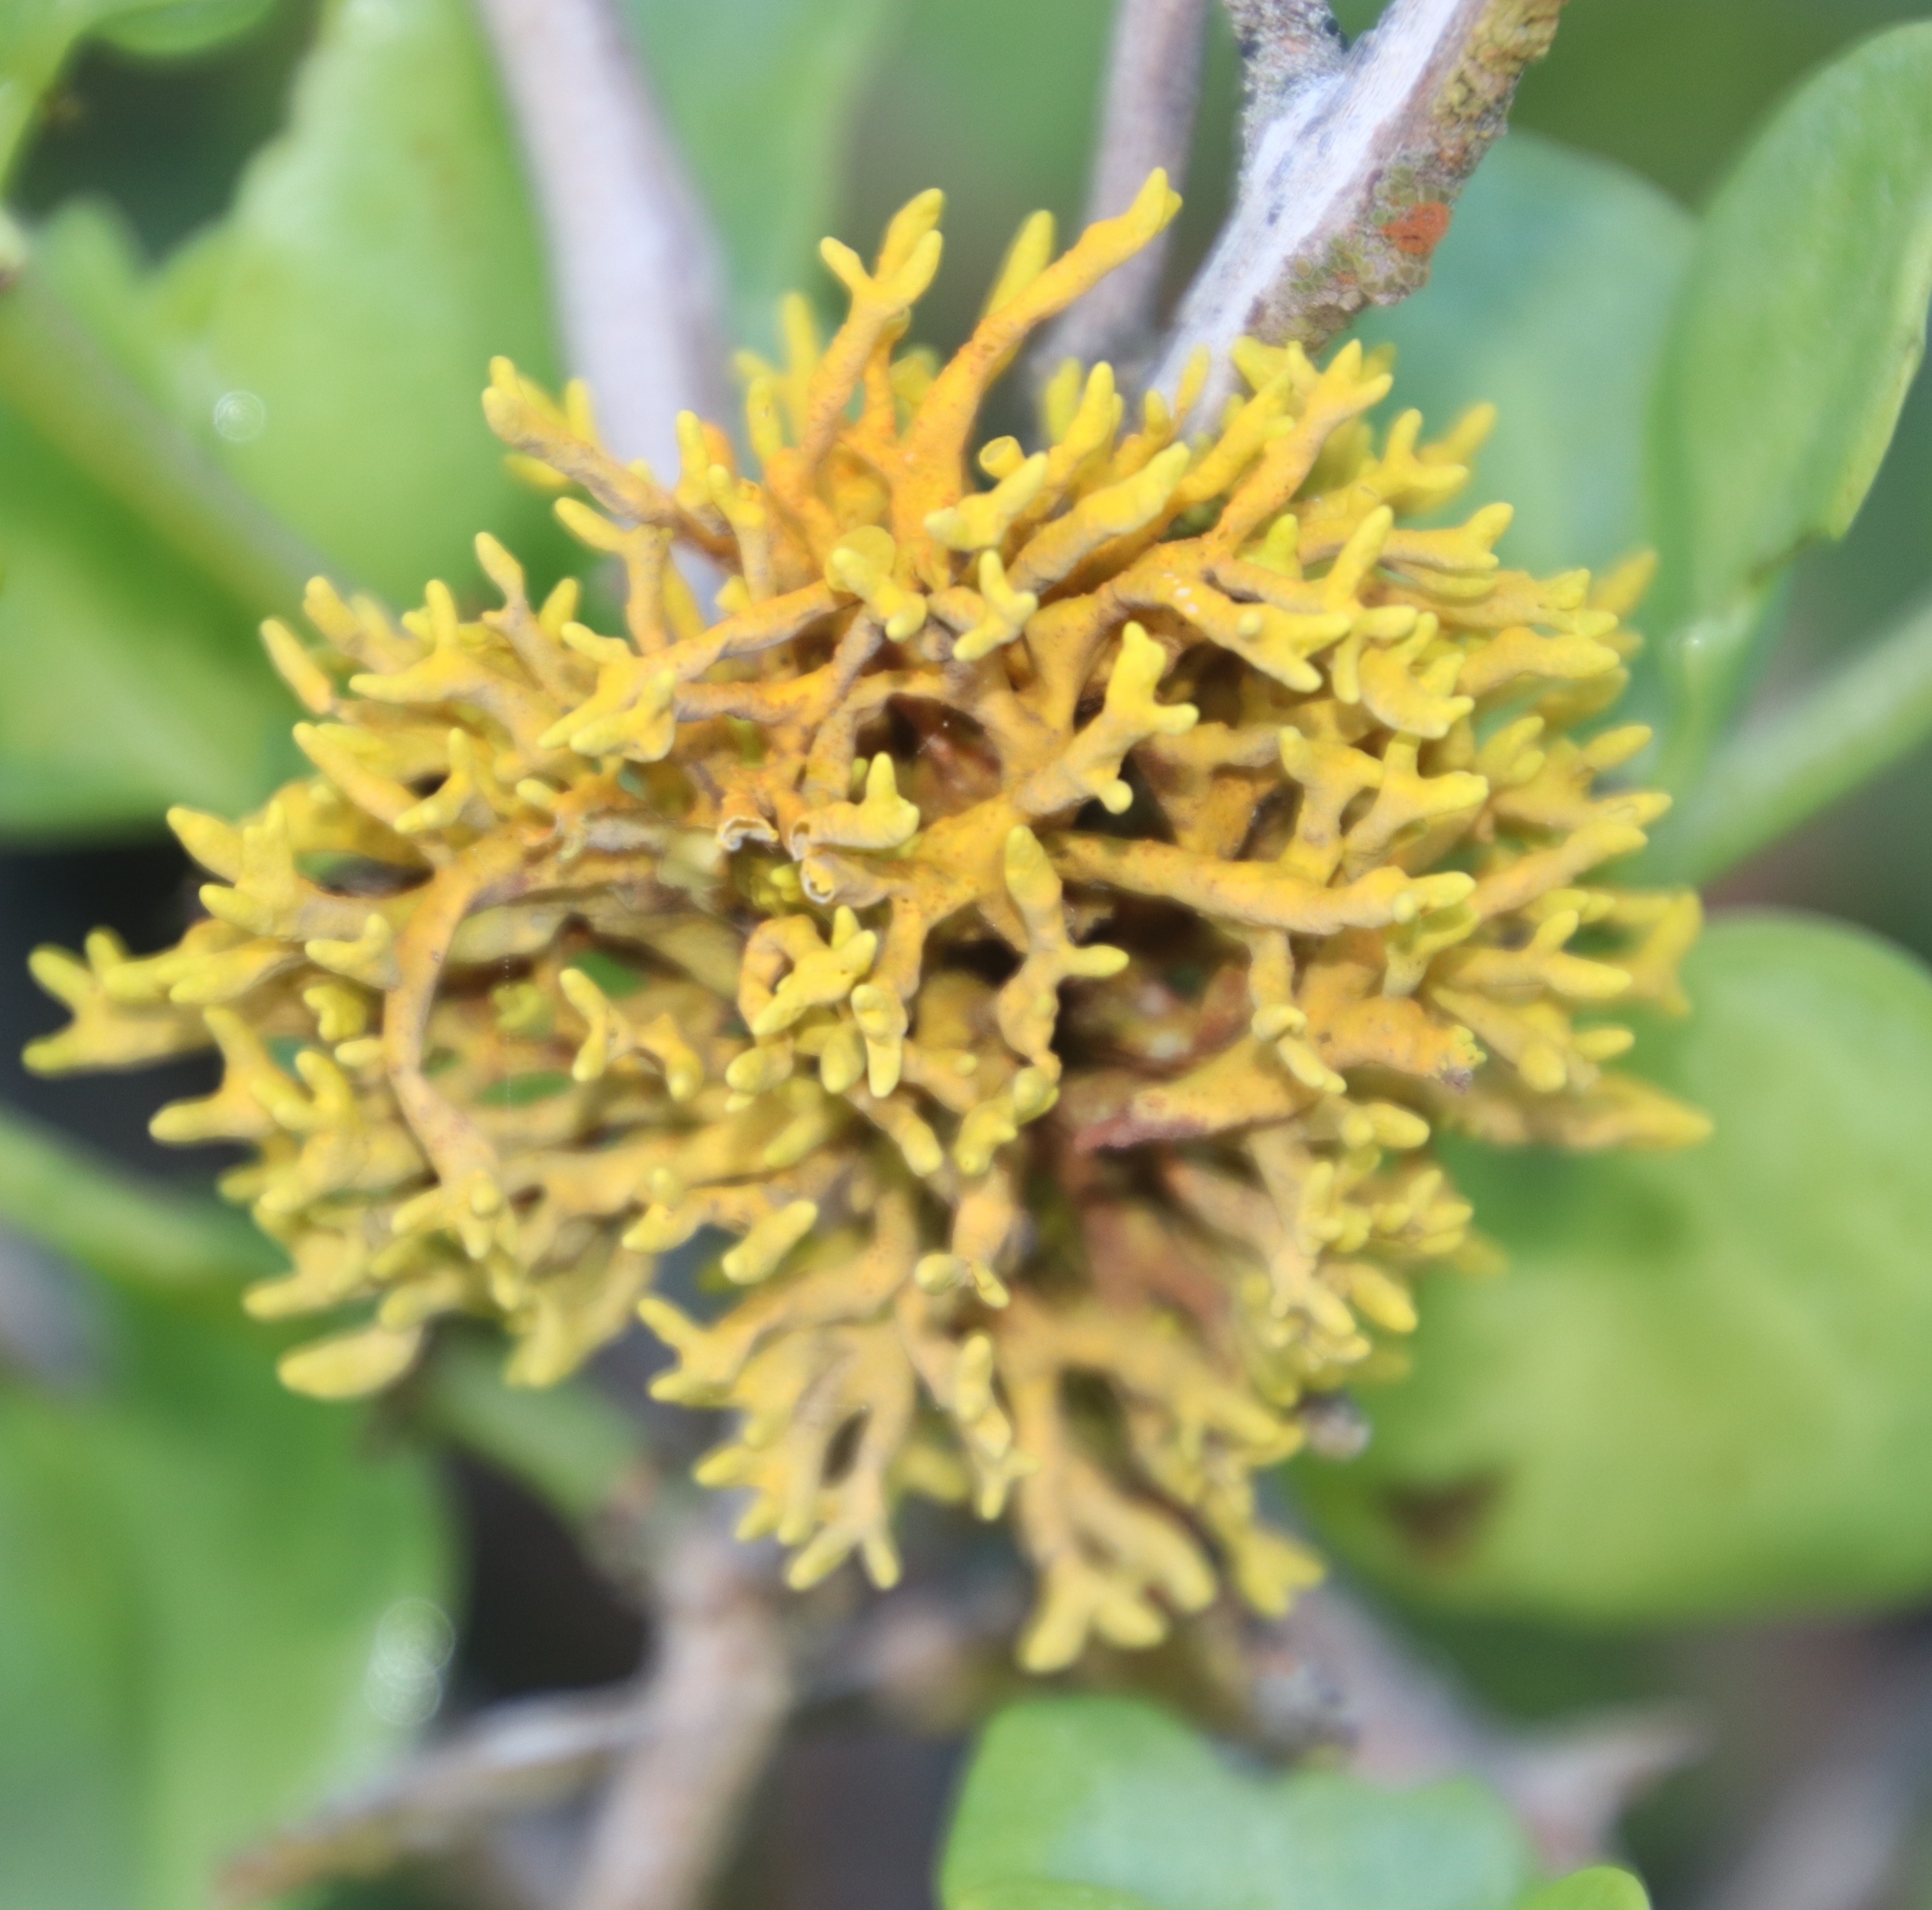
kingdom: Fungi
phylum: Ascomycota
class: Lecanoromycetes
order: Teloschistales
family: Teloschistaceae
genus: Dufourea
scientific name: Dufourea flammea
